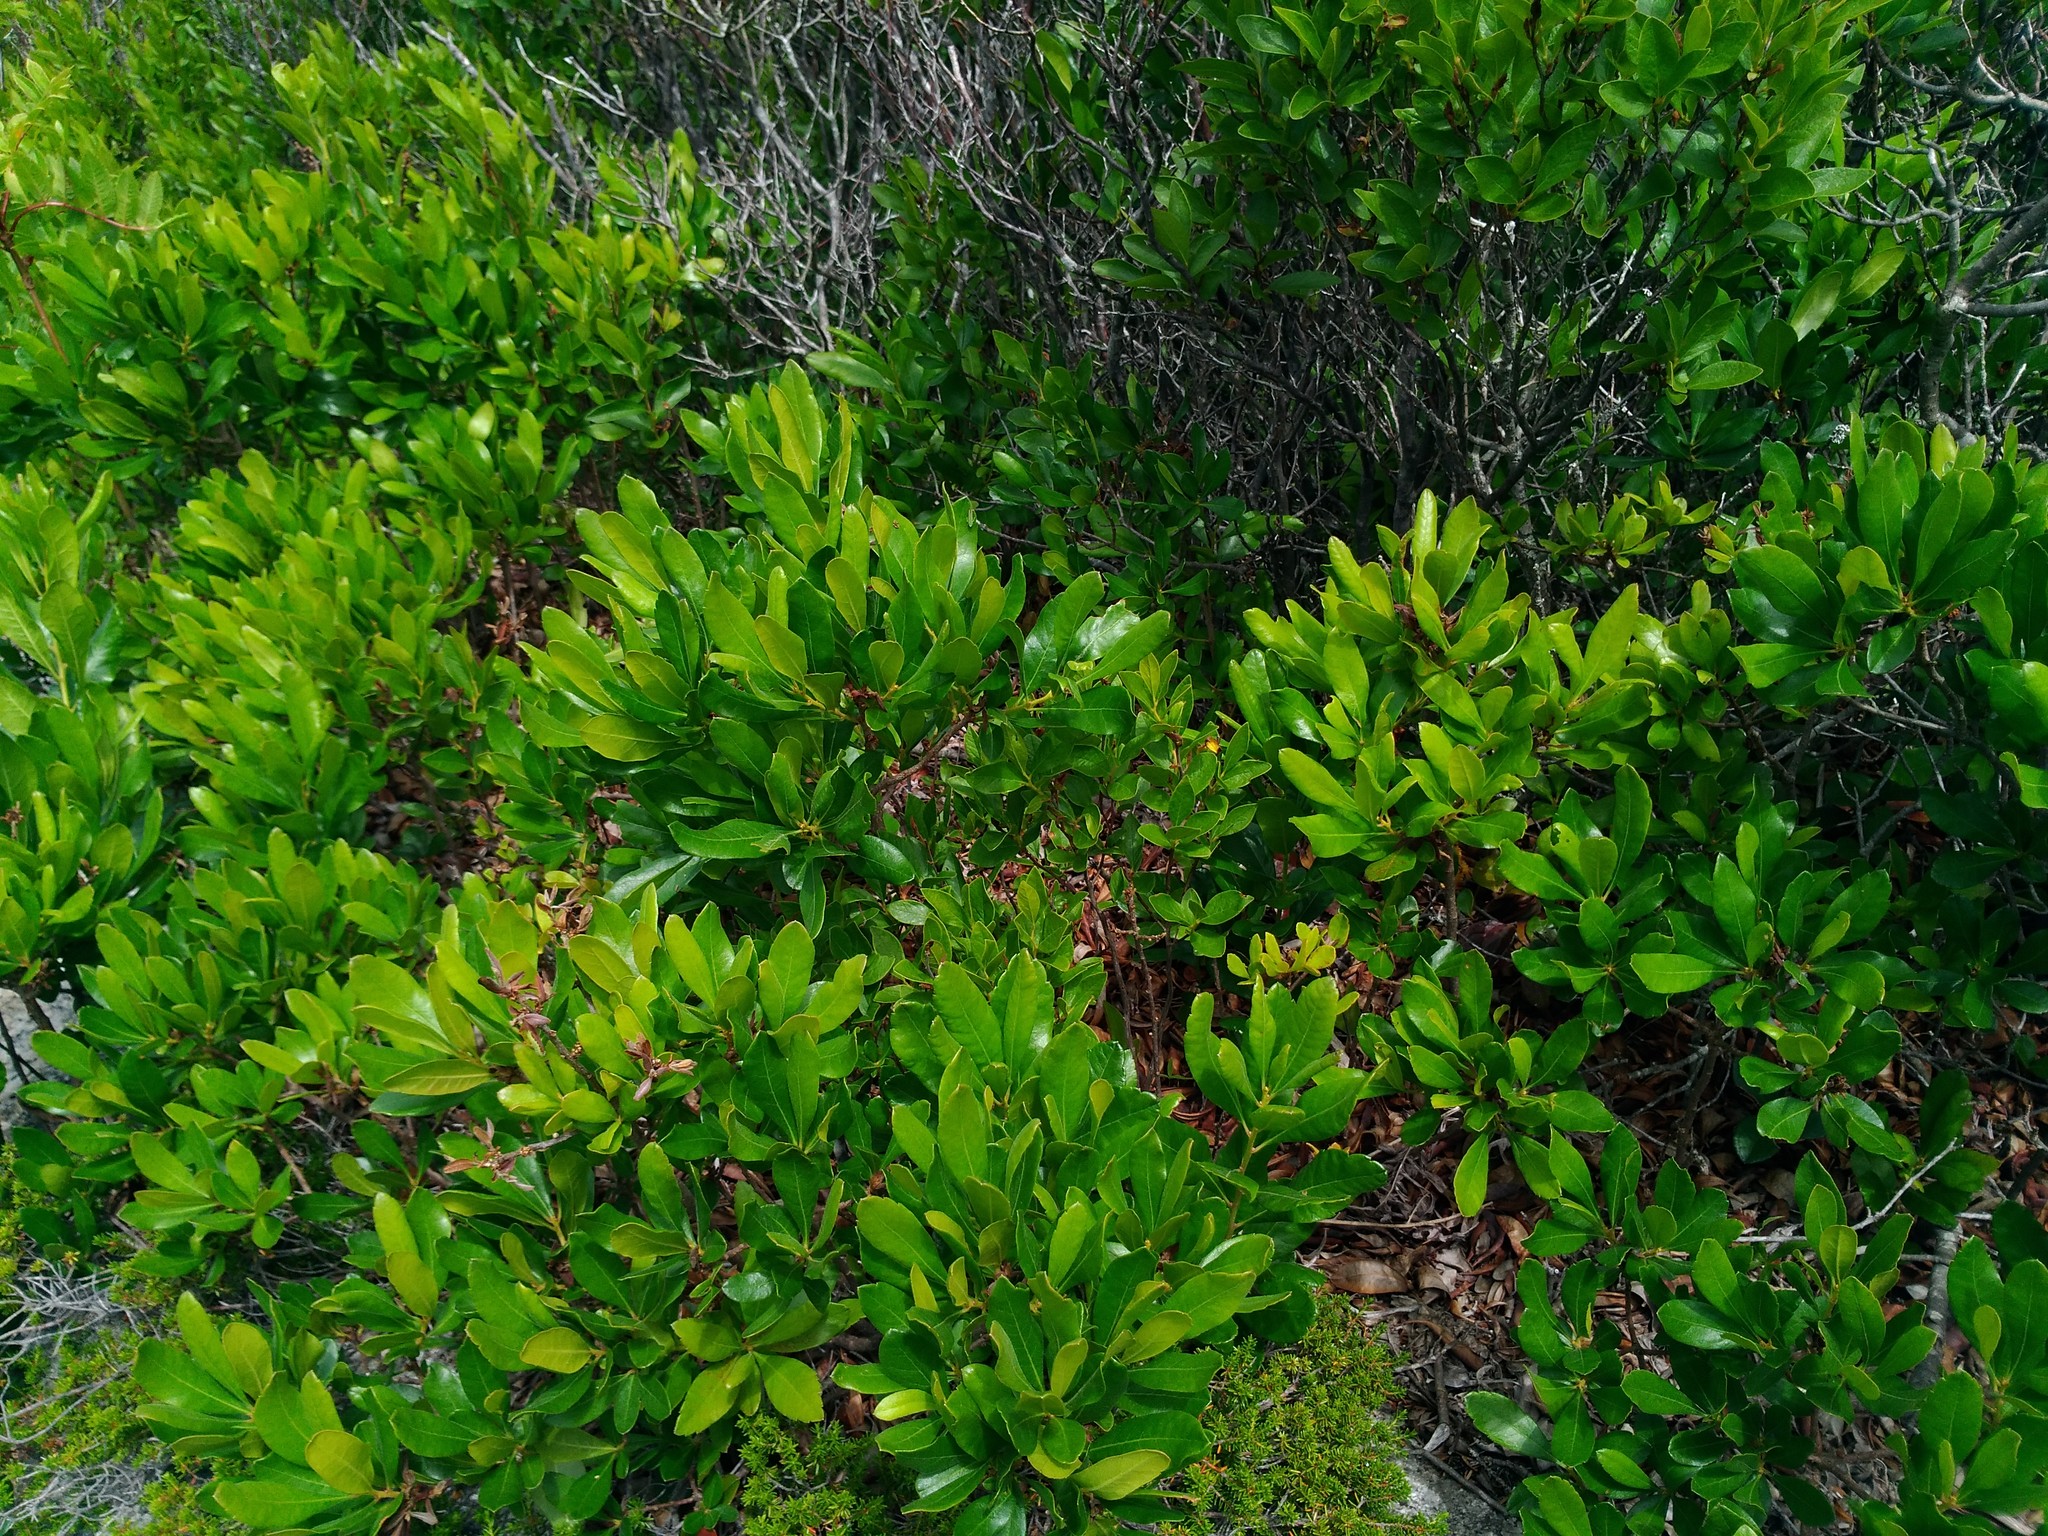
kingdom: Plantae
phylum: Tracheophyta
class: Magnoliopsida
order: Fagales
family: Myricaceae
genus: Morella
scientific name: Morella pensylvanica
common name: Northern bayberry
